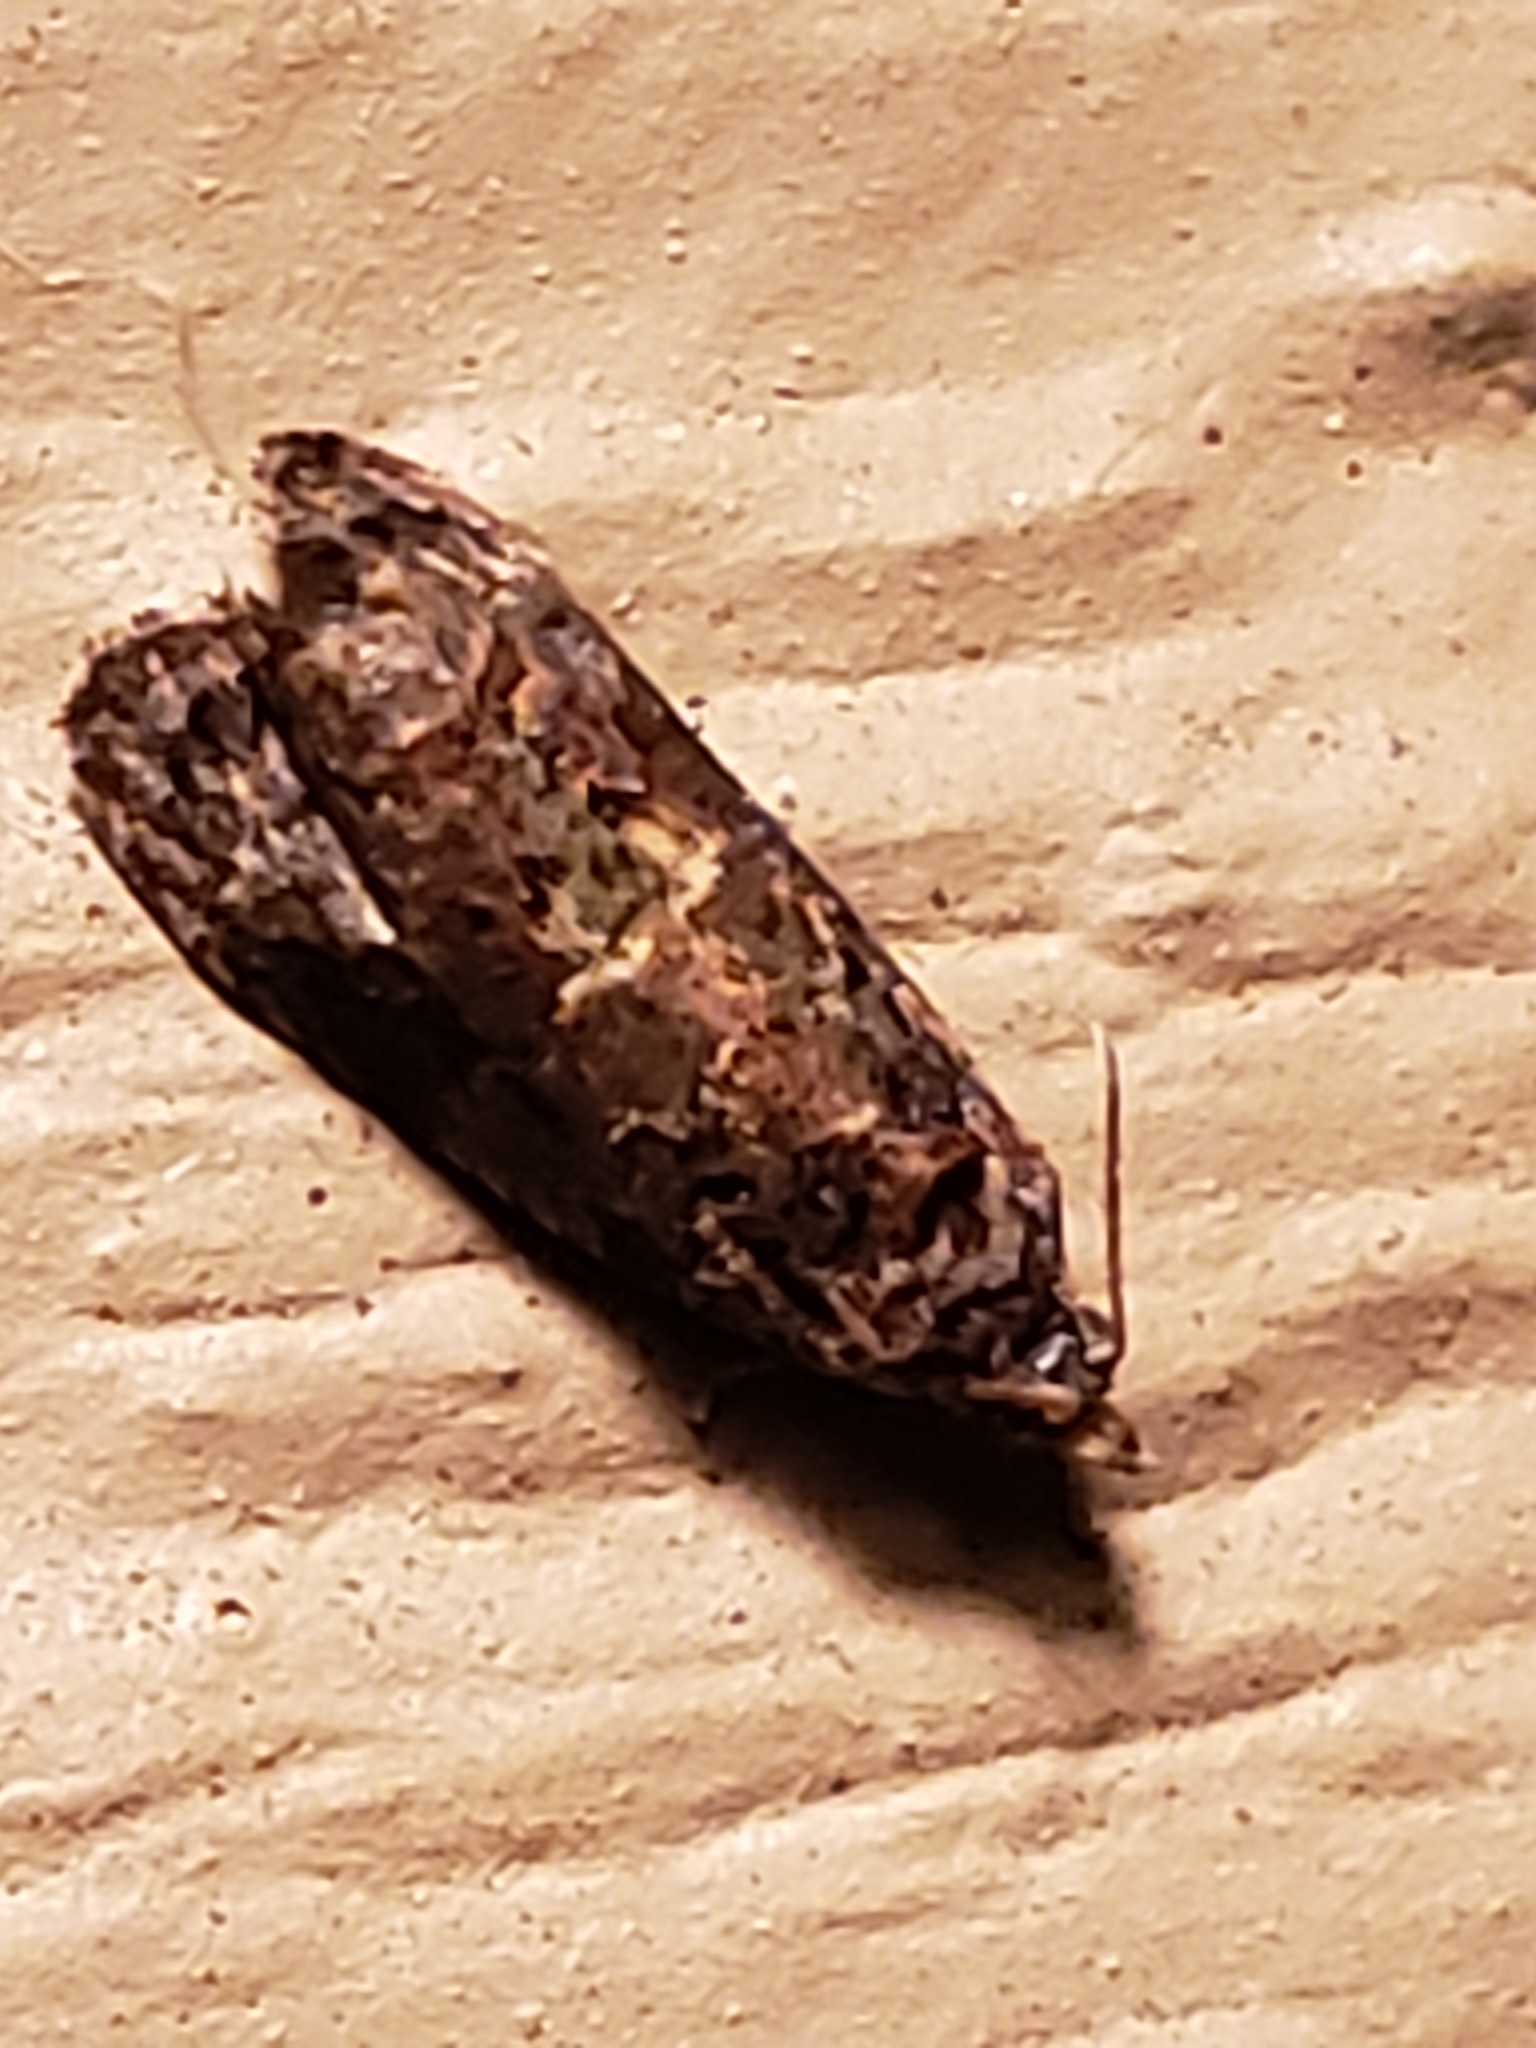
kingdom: Animalia
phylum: Arthropoda
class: Insecta
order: Lepidoptera
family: Tortricidae
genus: Endothenia
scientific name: Endothenia hebesana
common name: Verbena bud moth
